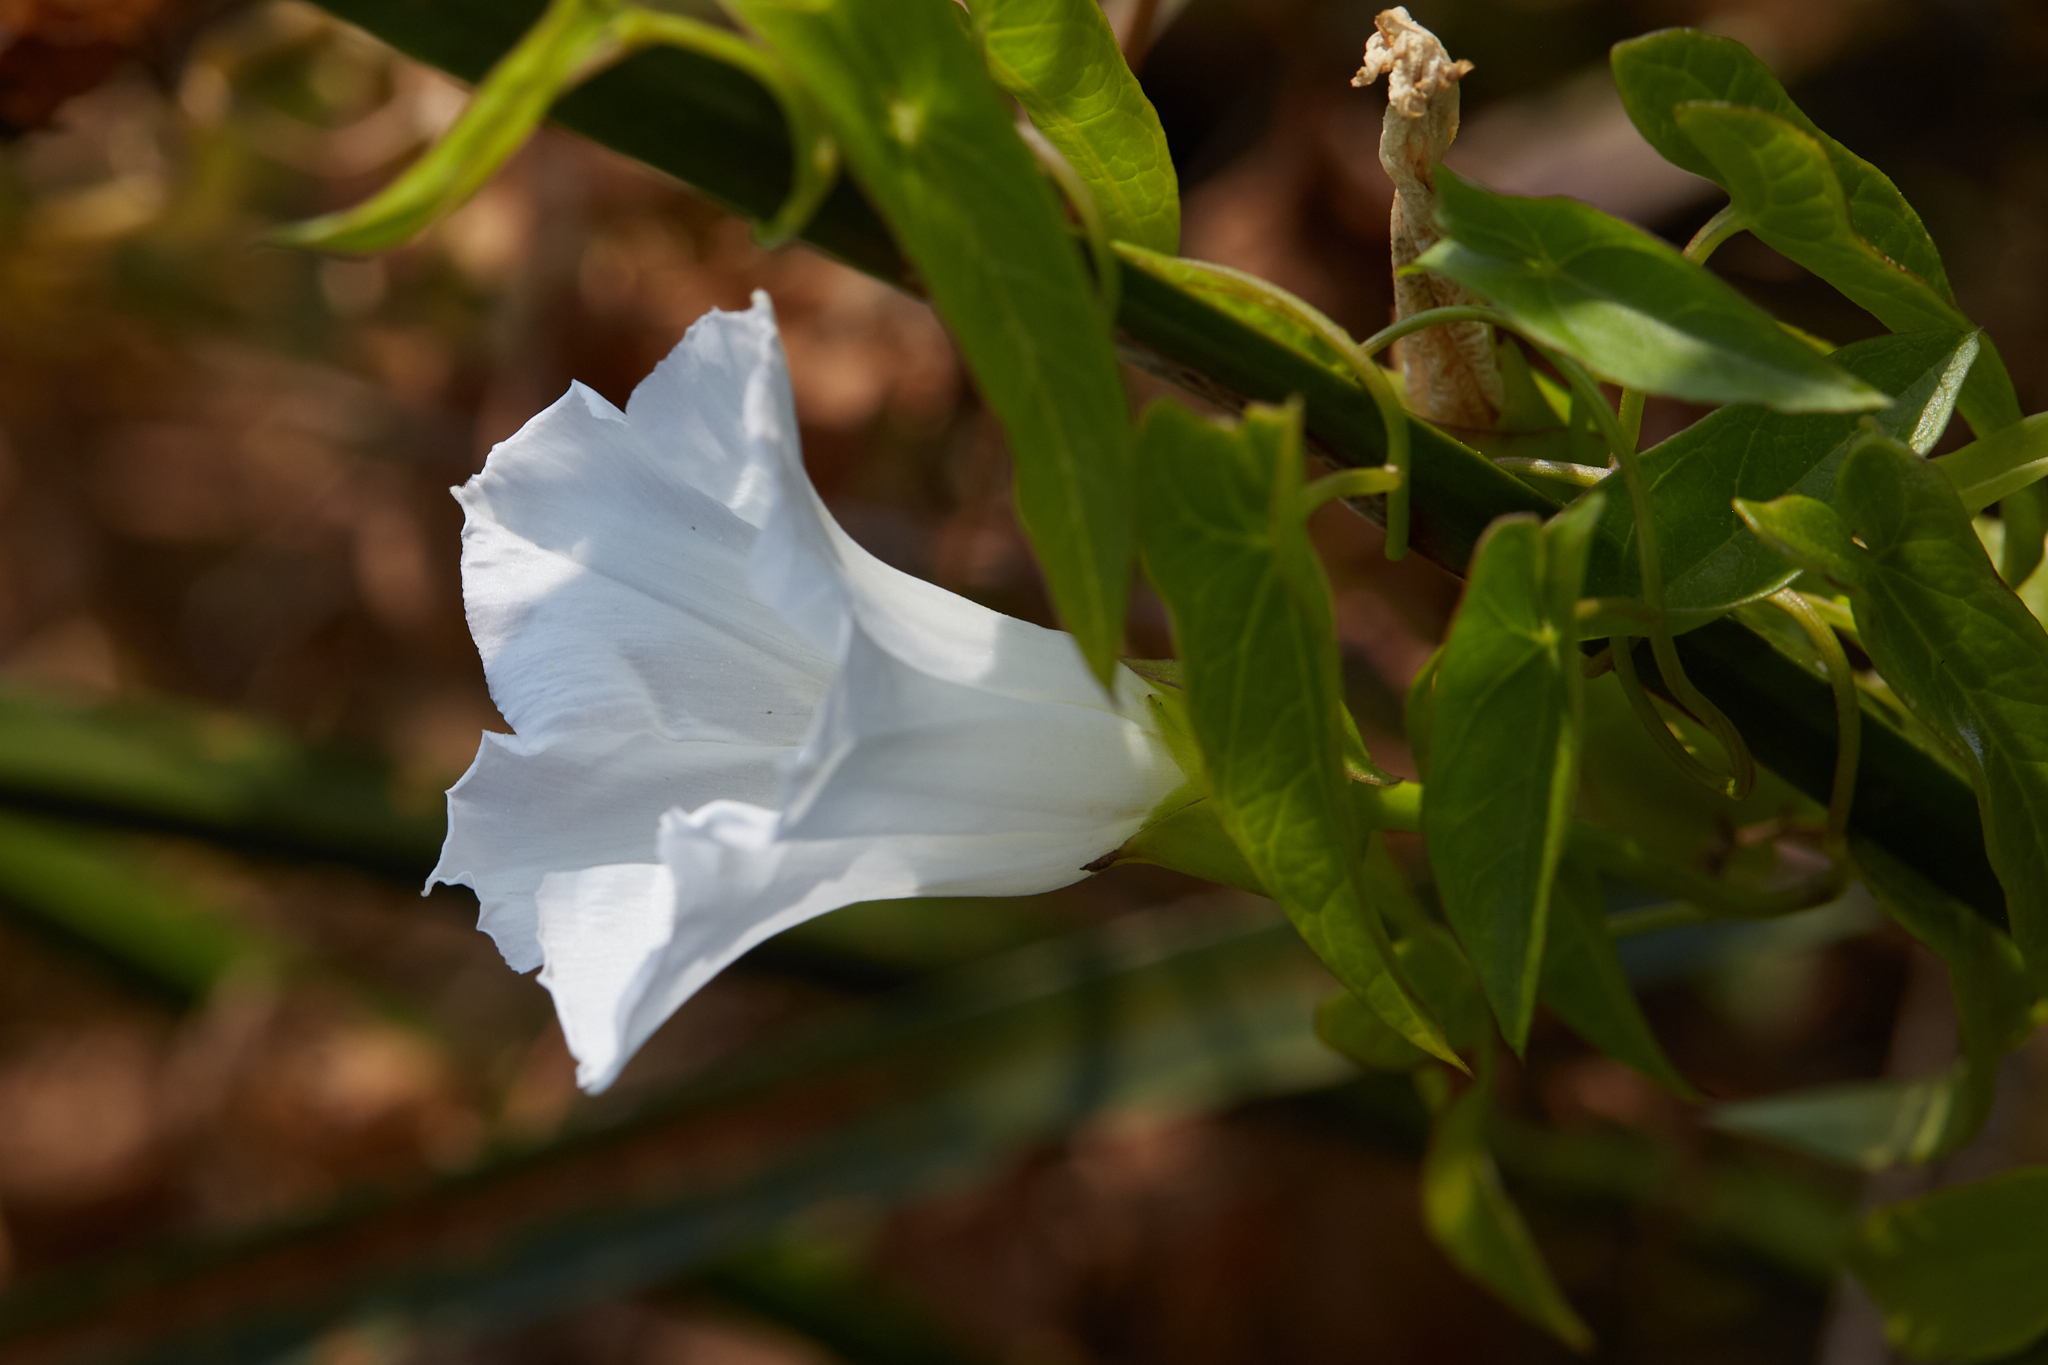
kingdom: Plantae
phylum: Tracheophyta
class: Magnoliopsida
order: Solanales
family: Convolvulaceae
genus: Calystegia
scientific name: Calystegia sepium
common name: Hedge bindweed
